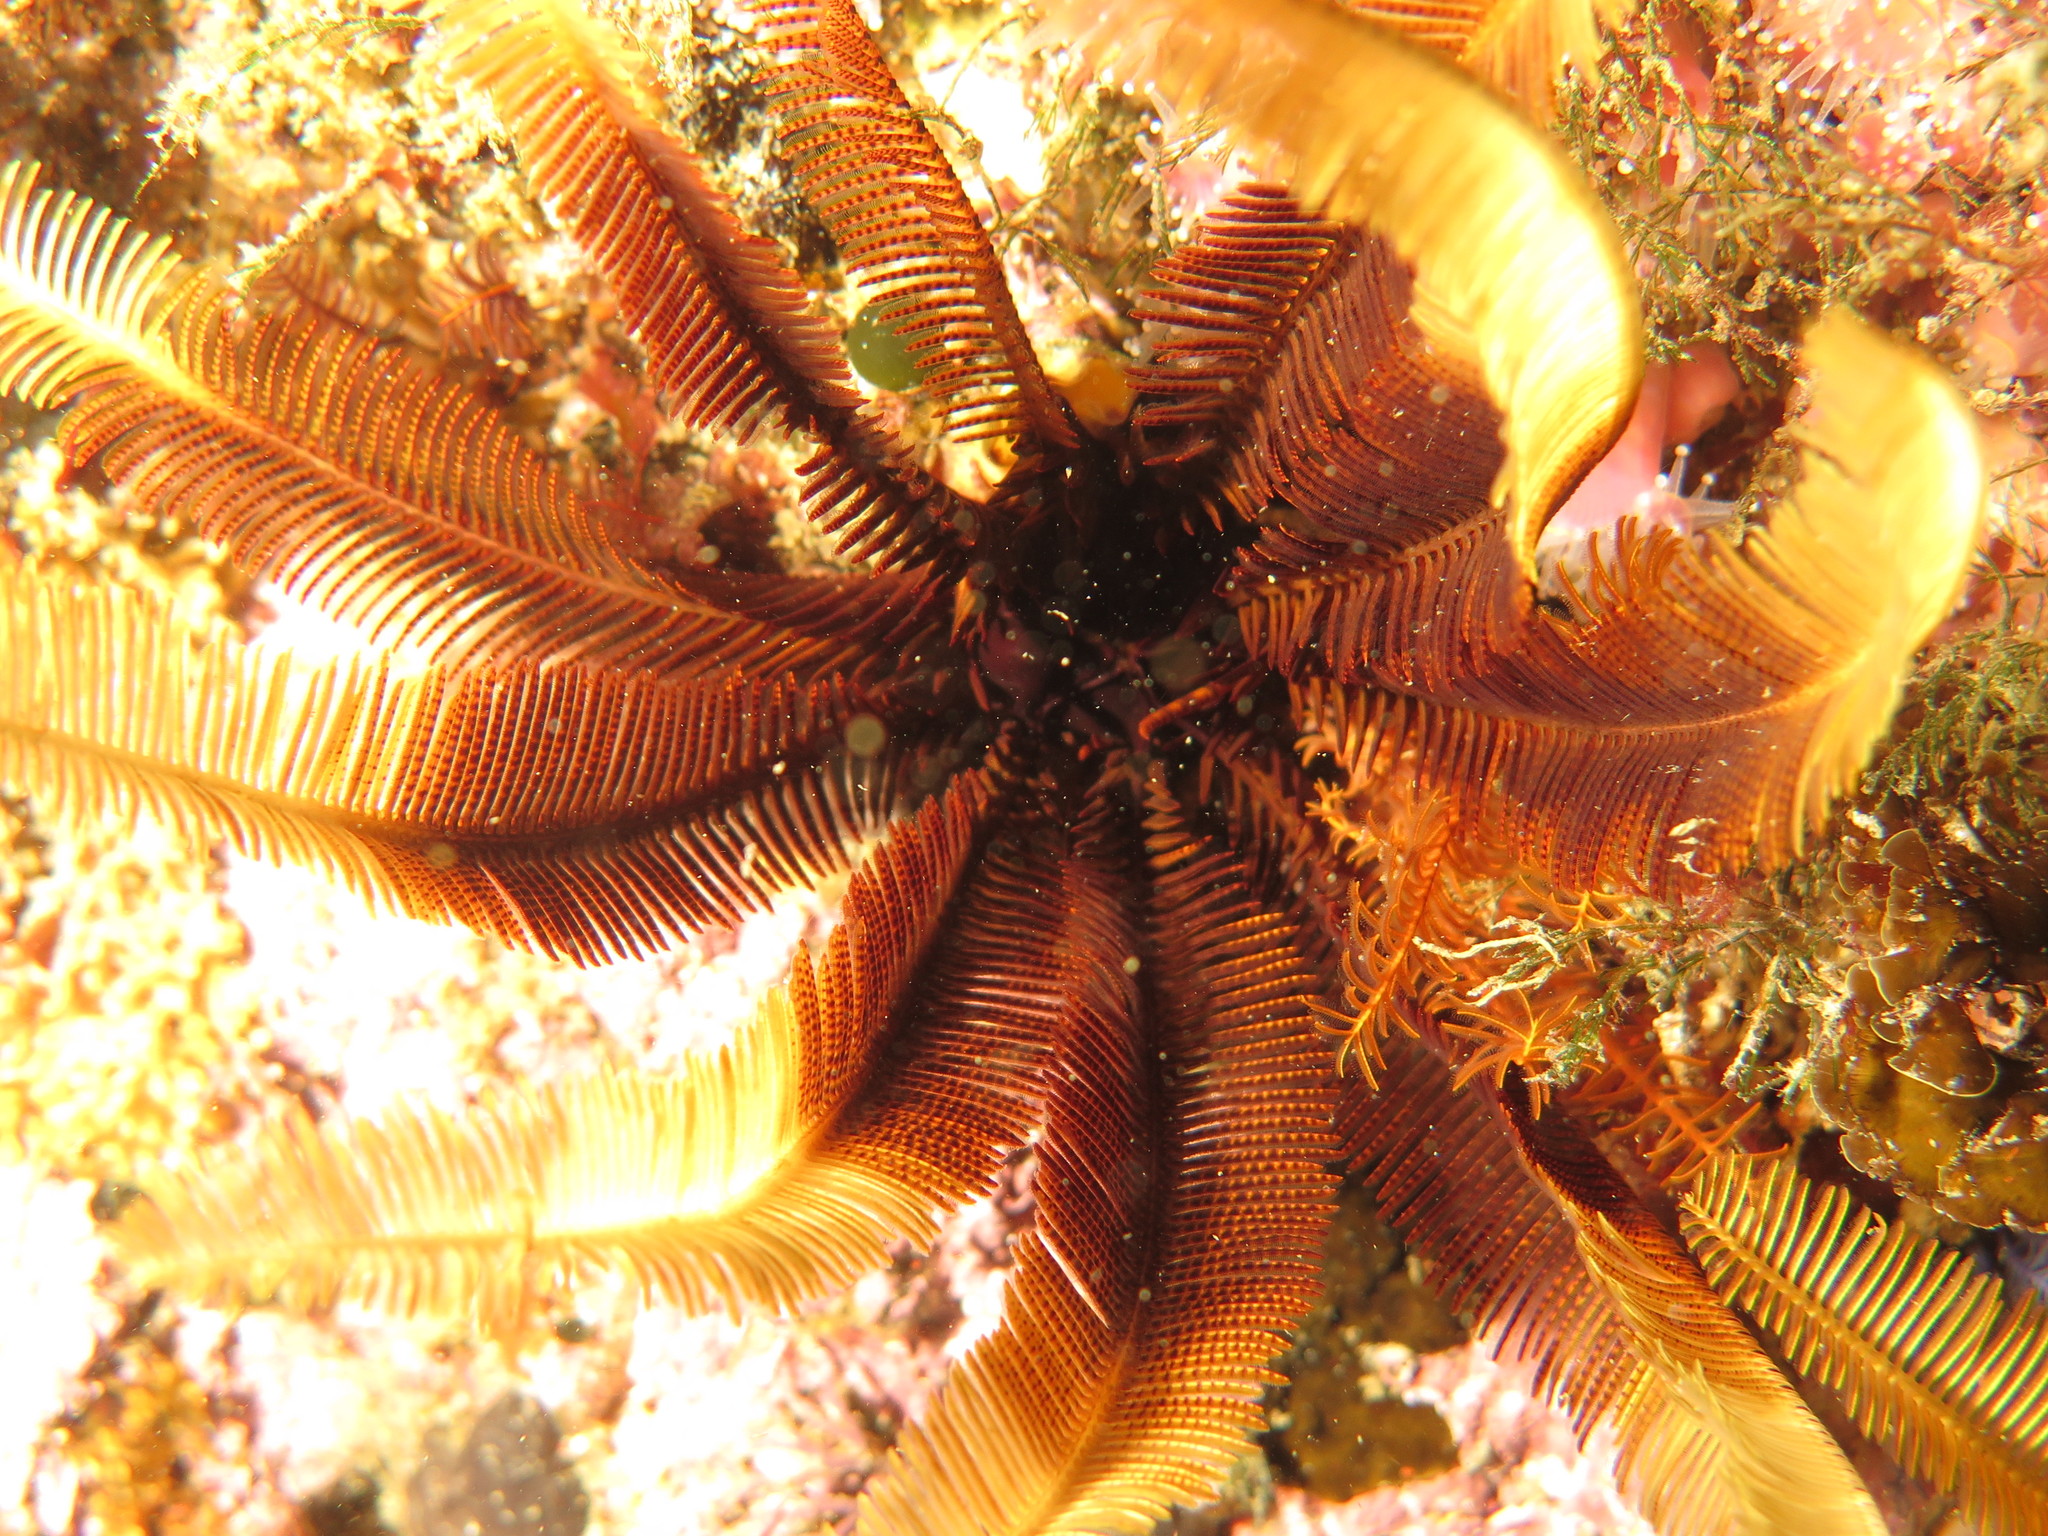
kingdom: Animalia
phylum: Echinodermata
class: Crinoidea
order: Comatulida
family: Tropiometridae
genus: Tropiometra
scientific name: Tropiometra carinata
